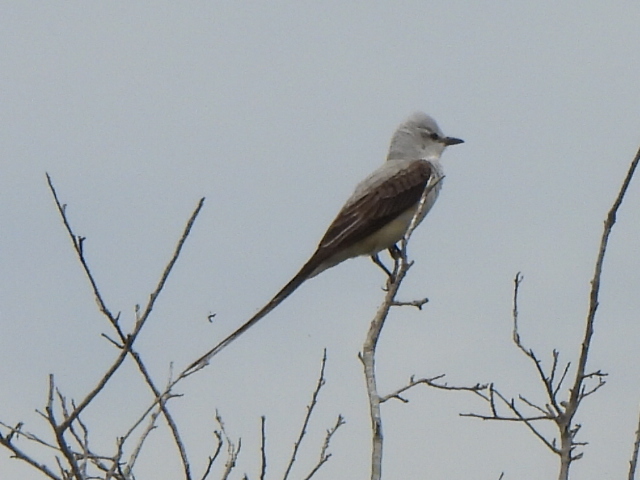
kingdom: Animalia
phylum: Chordata
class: Aves
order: Passeriformes
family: Tyrannidae
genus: Tyrannus
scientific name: Tyrannus forficatus
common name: Scissor-tailed flycatcher
